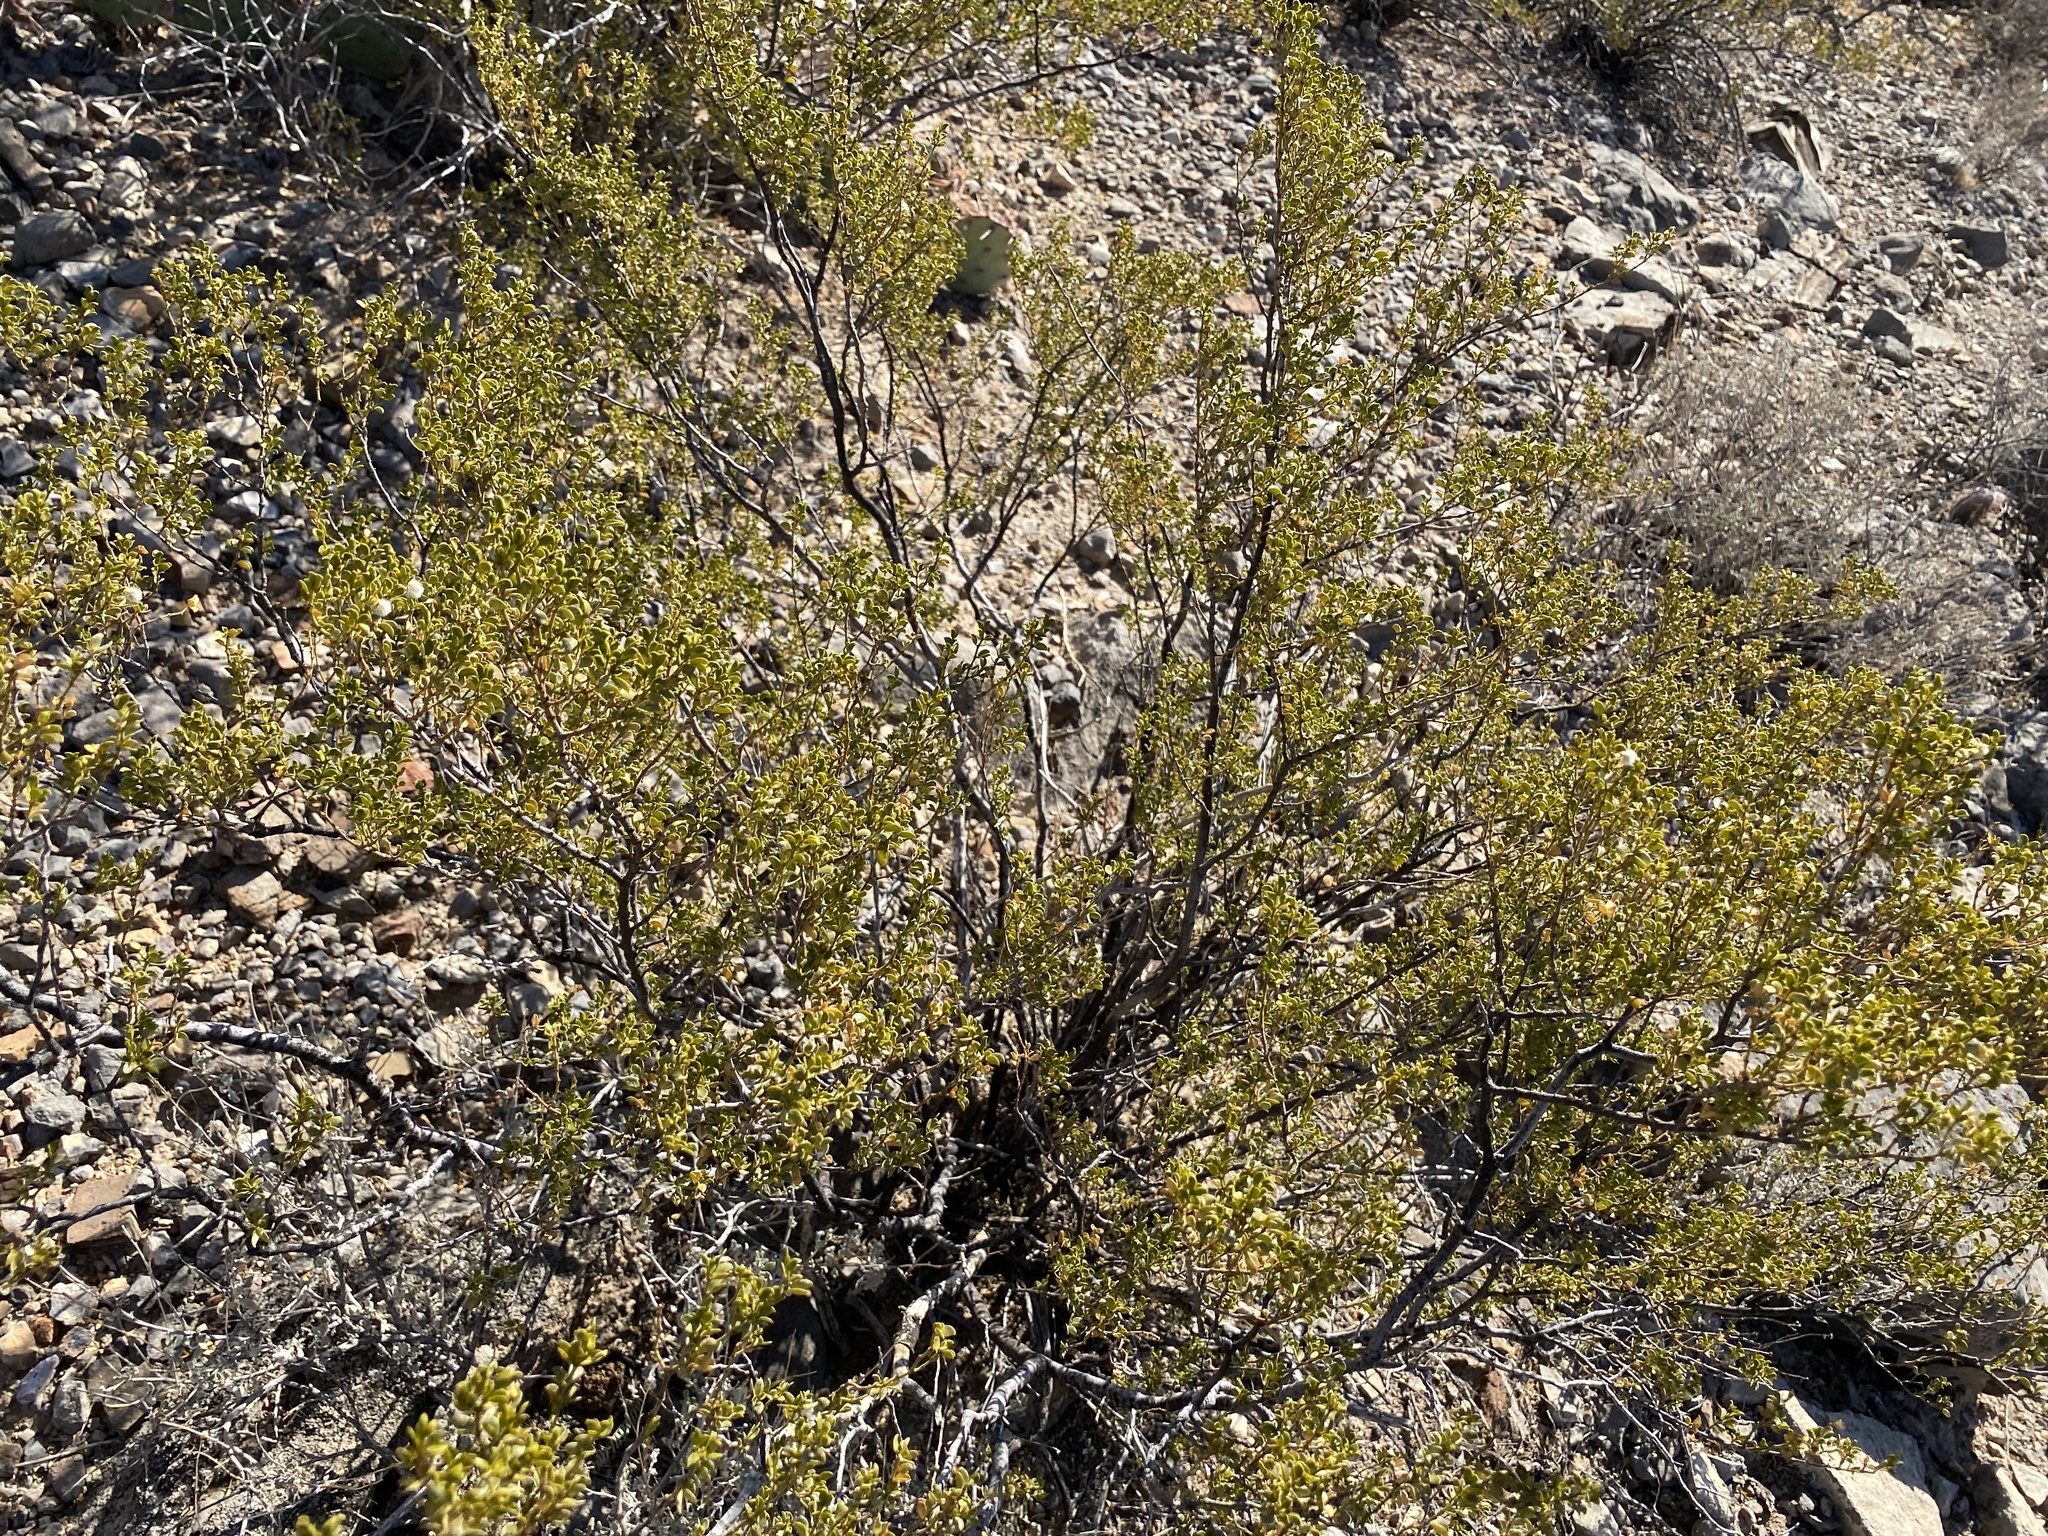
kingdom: Plantae
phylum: Tracheophyta
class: Magnoliopsida
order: Zygophyllales
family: Zygophyllaceae
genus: Larrea
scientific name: Larrea tridentata
